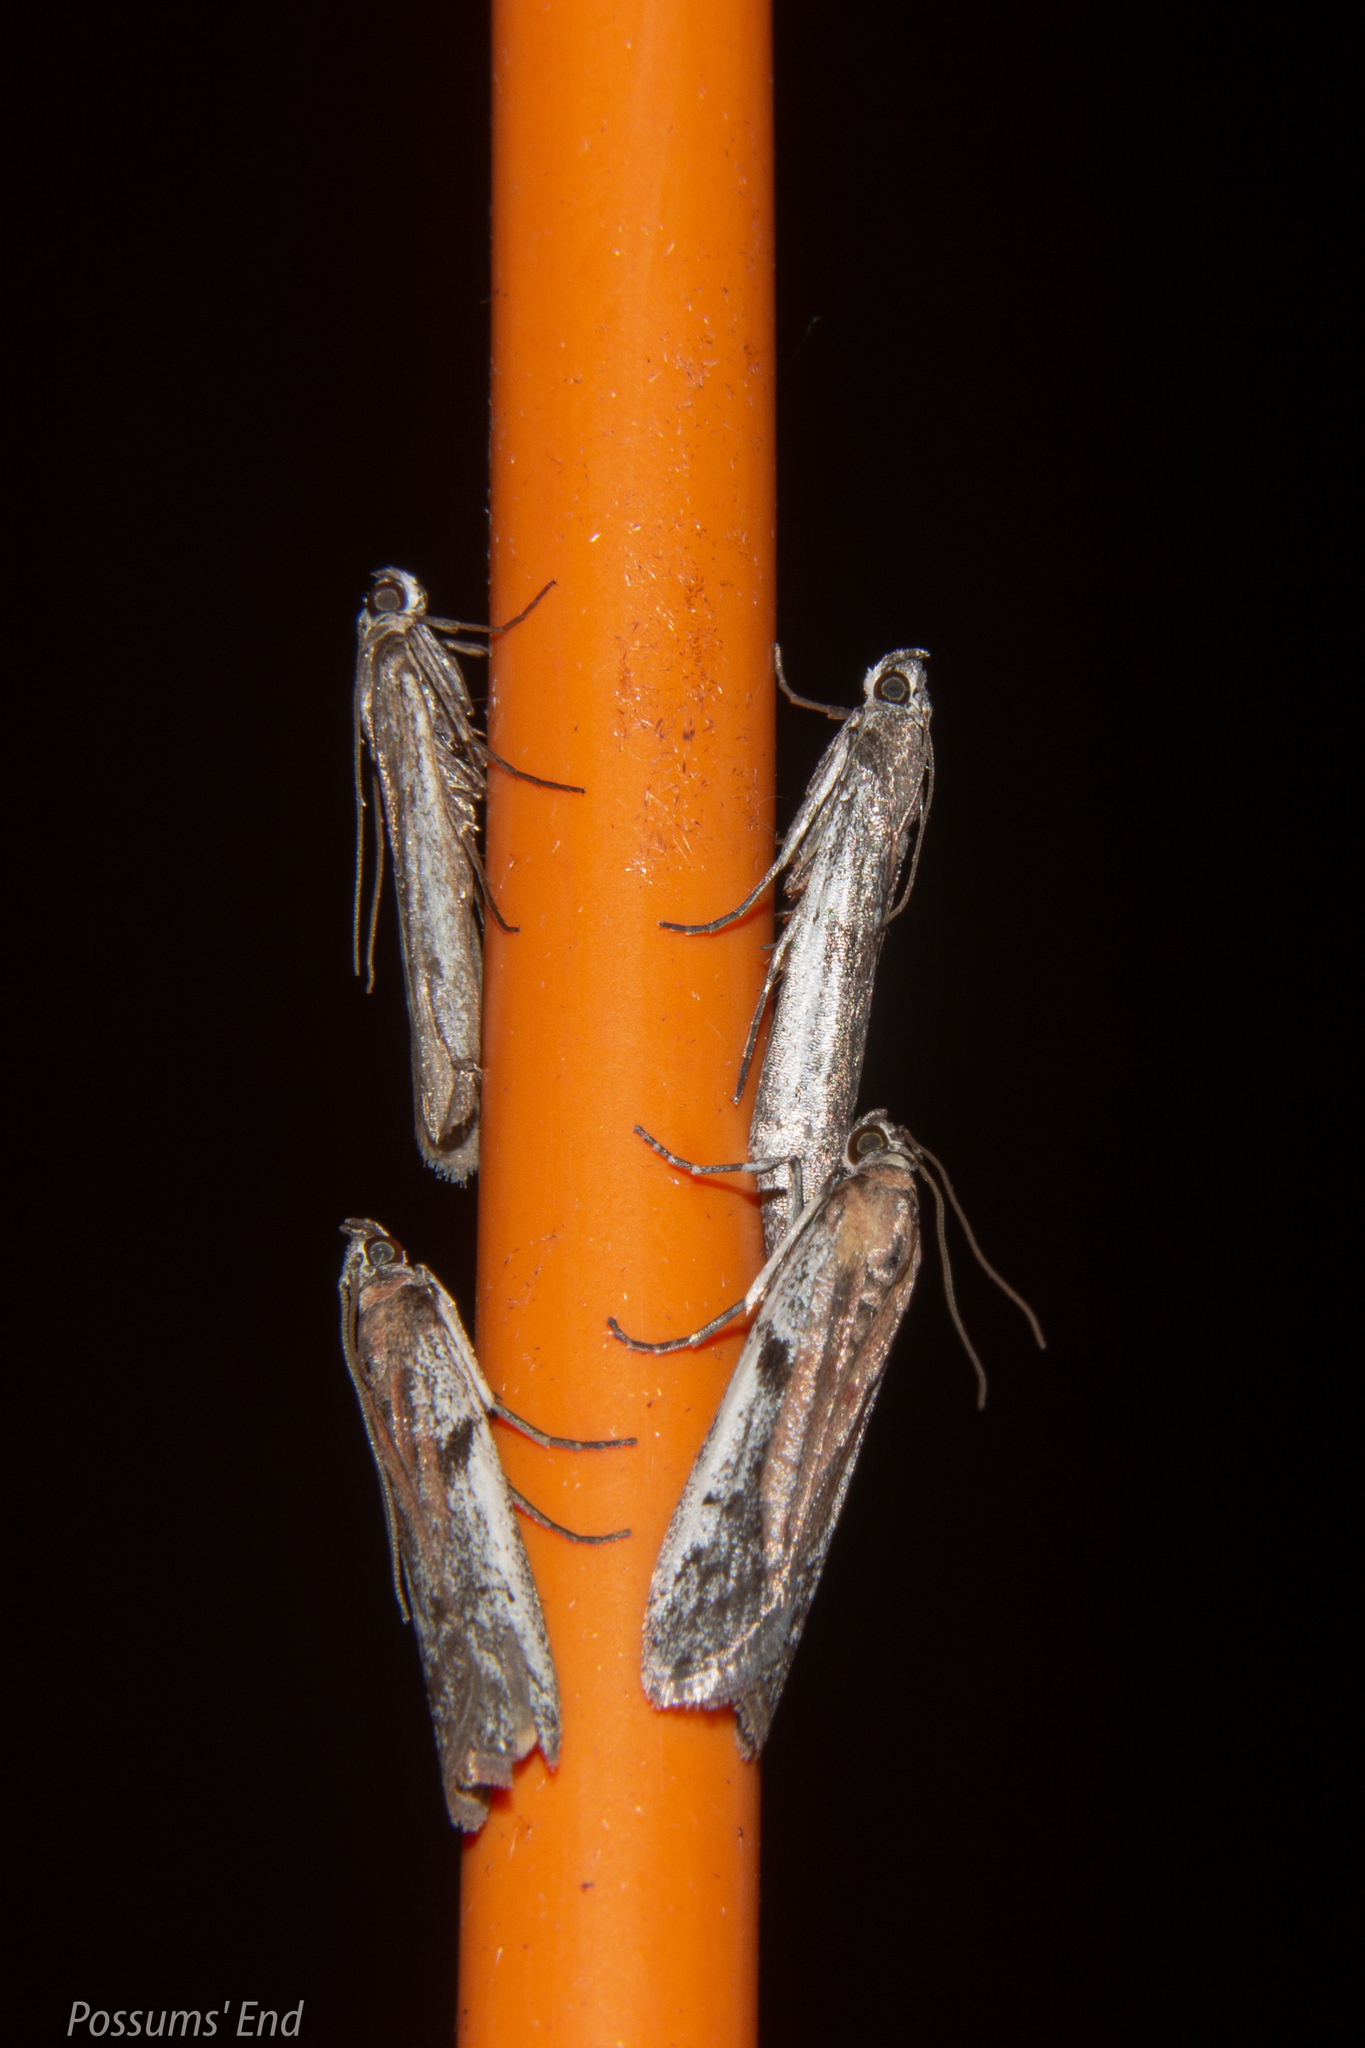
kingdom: Animalia
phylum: Arthropoda
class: Insecta
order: Lepidoptera
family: Pyralidae
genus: Patagoniodes
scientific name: Patagoniodes farinaria
